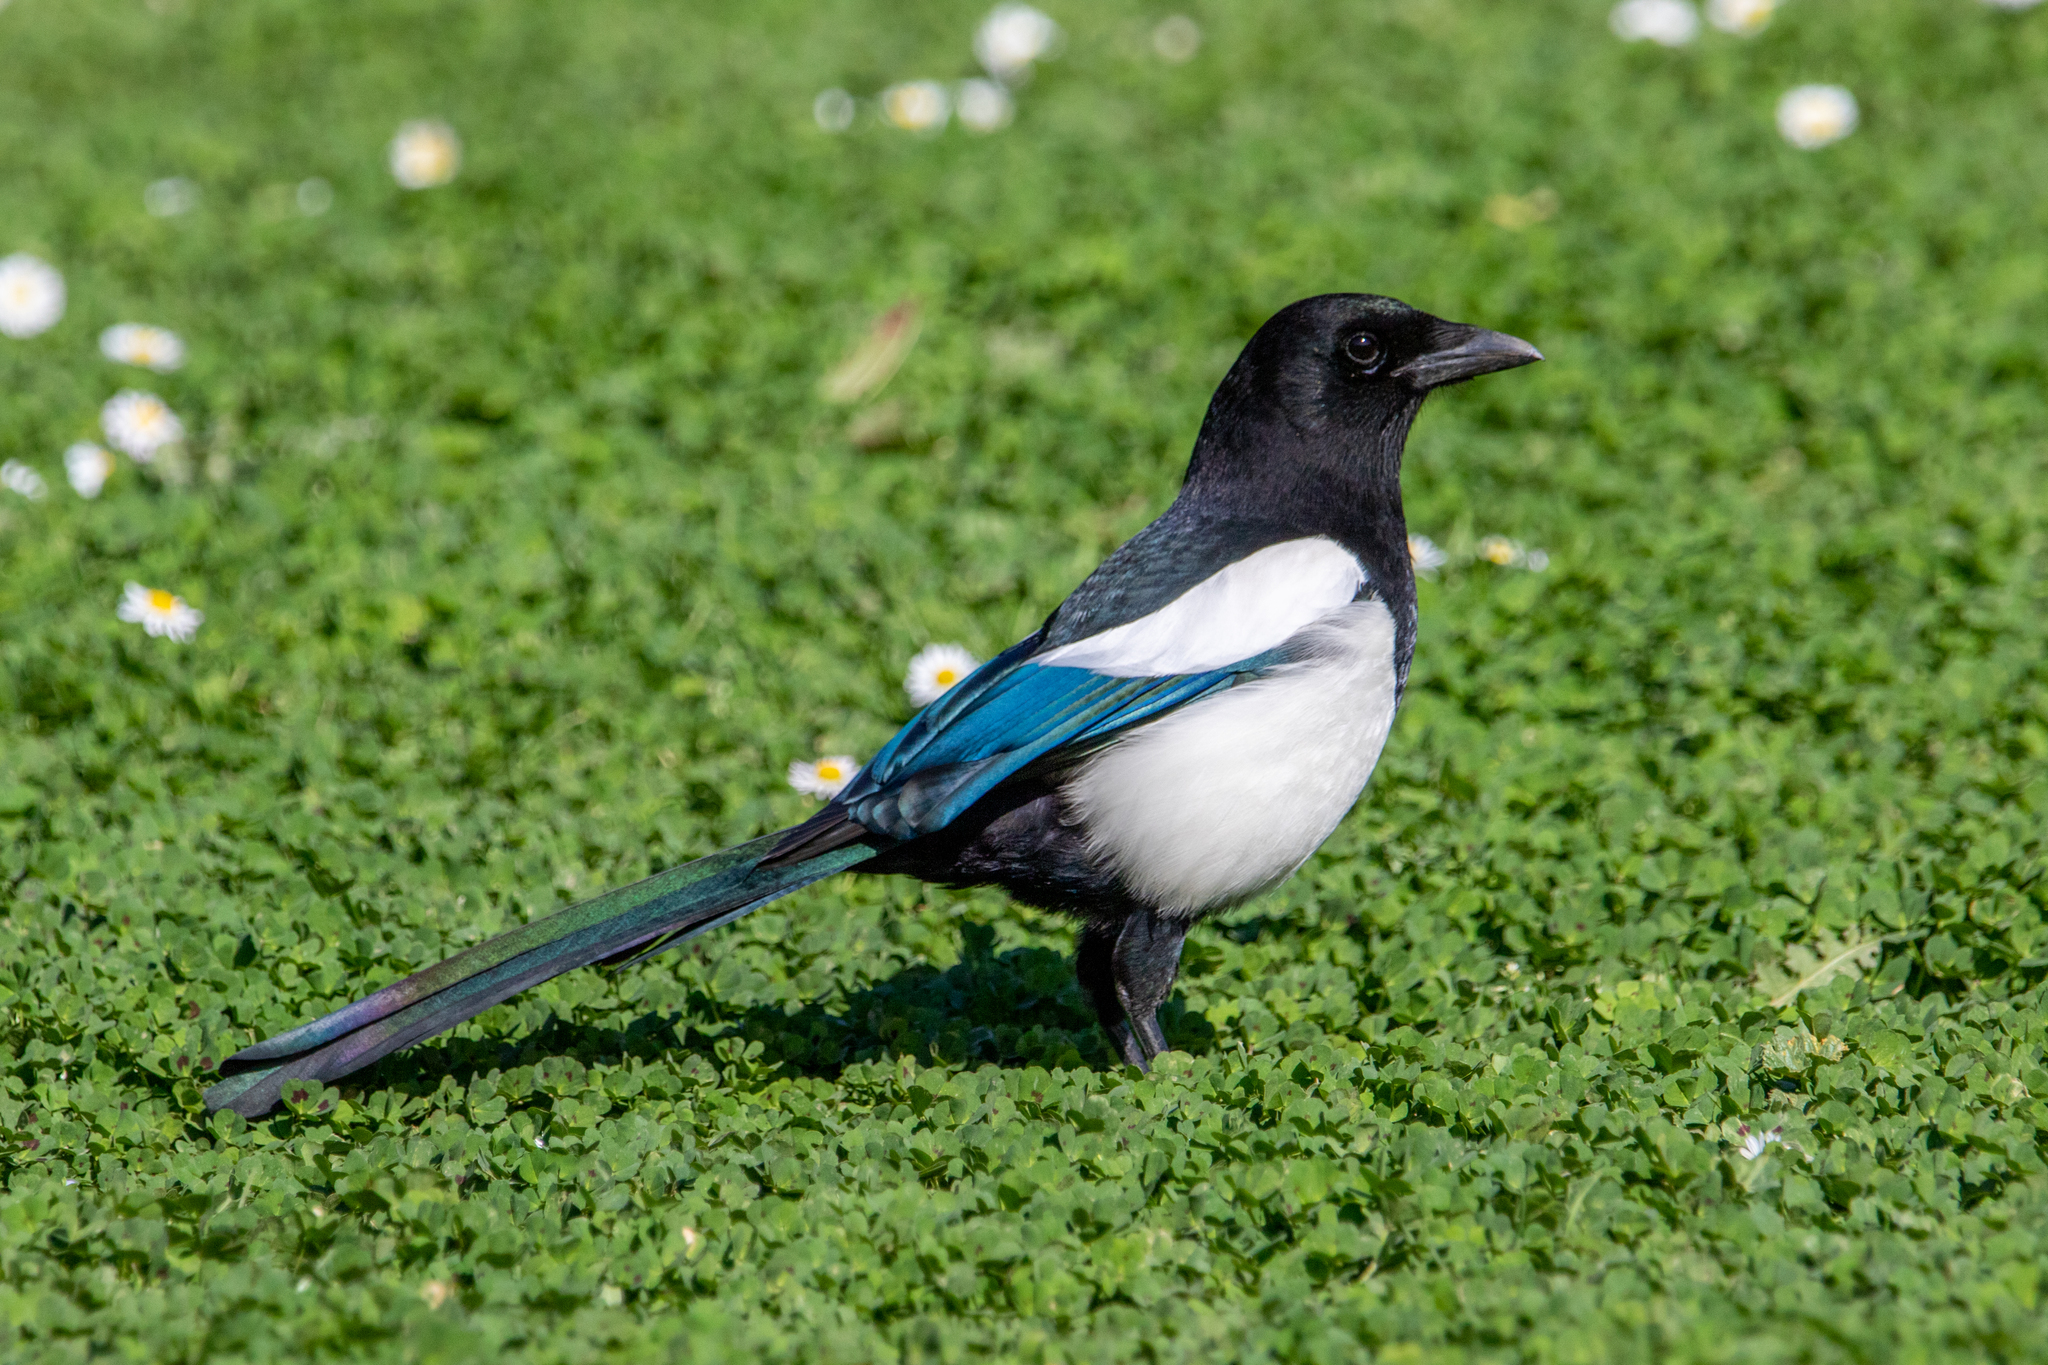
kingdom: Animalia
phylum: Chordata
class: Aves
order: Passeriformes
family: Corvidae
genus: Pica
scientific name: Pica pica
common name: Eurasian magpie
